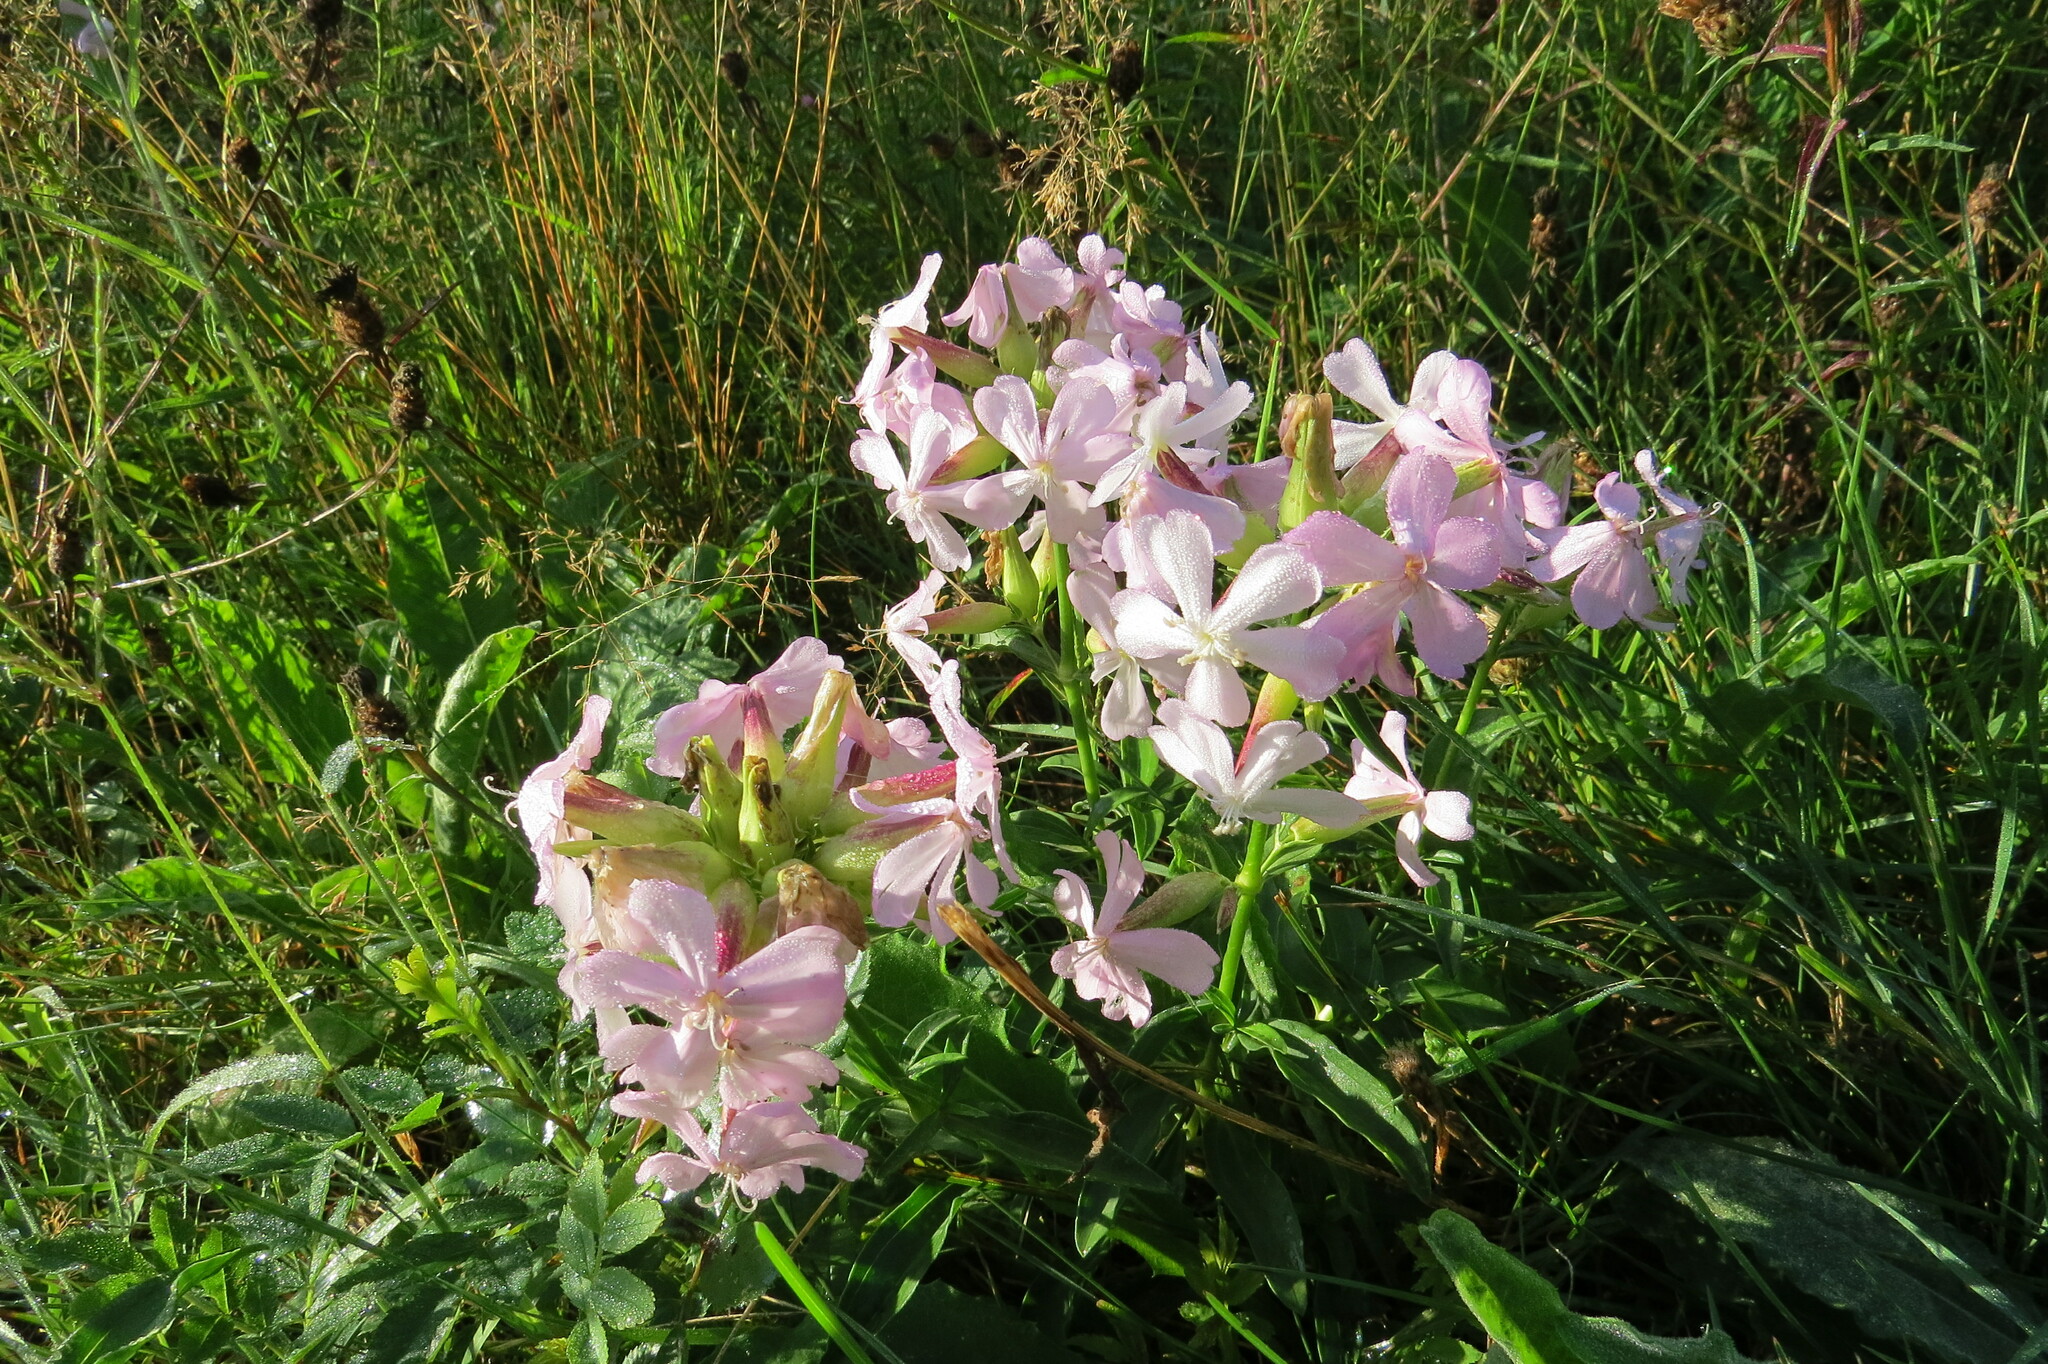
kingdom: Plantae
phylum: Tracheophyta
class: Magnoliopsida
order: Caryophyllales
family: Caryophyllaceae
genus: Saponaria
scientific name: Saponaria officinalis
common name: Soapwort
